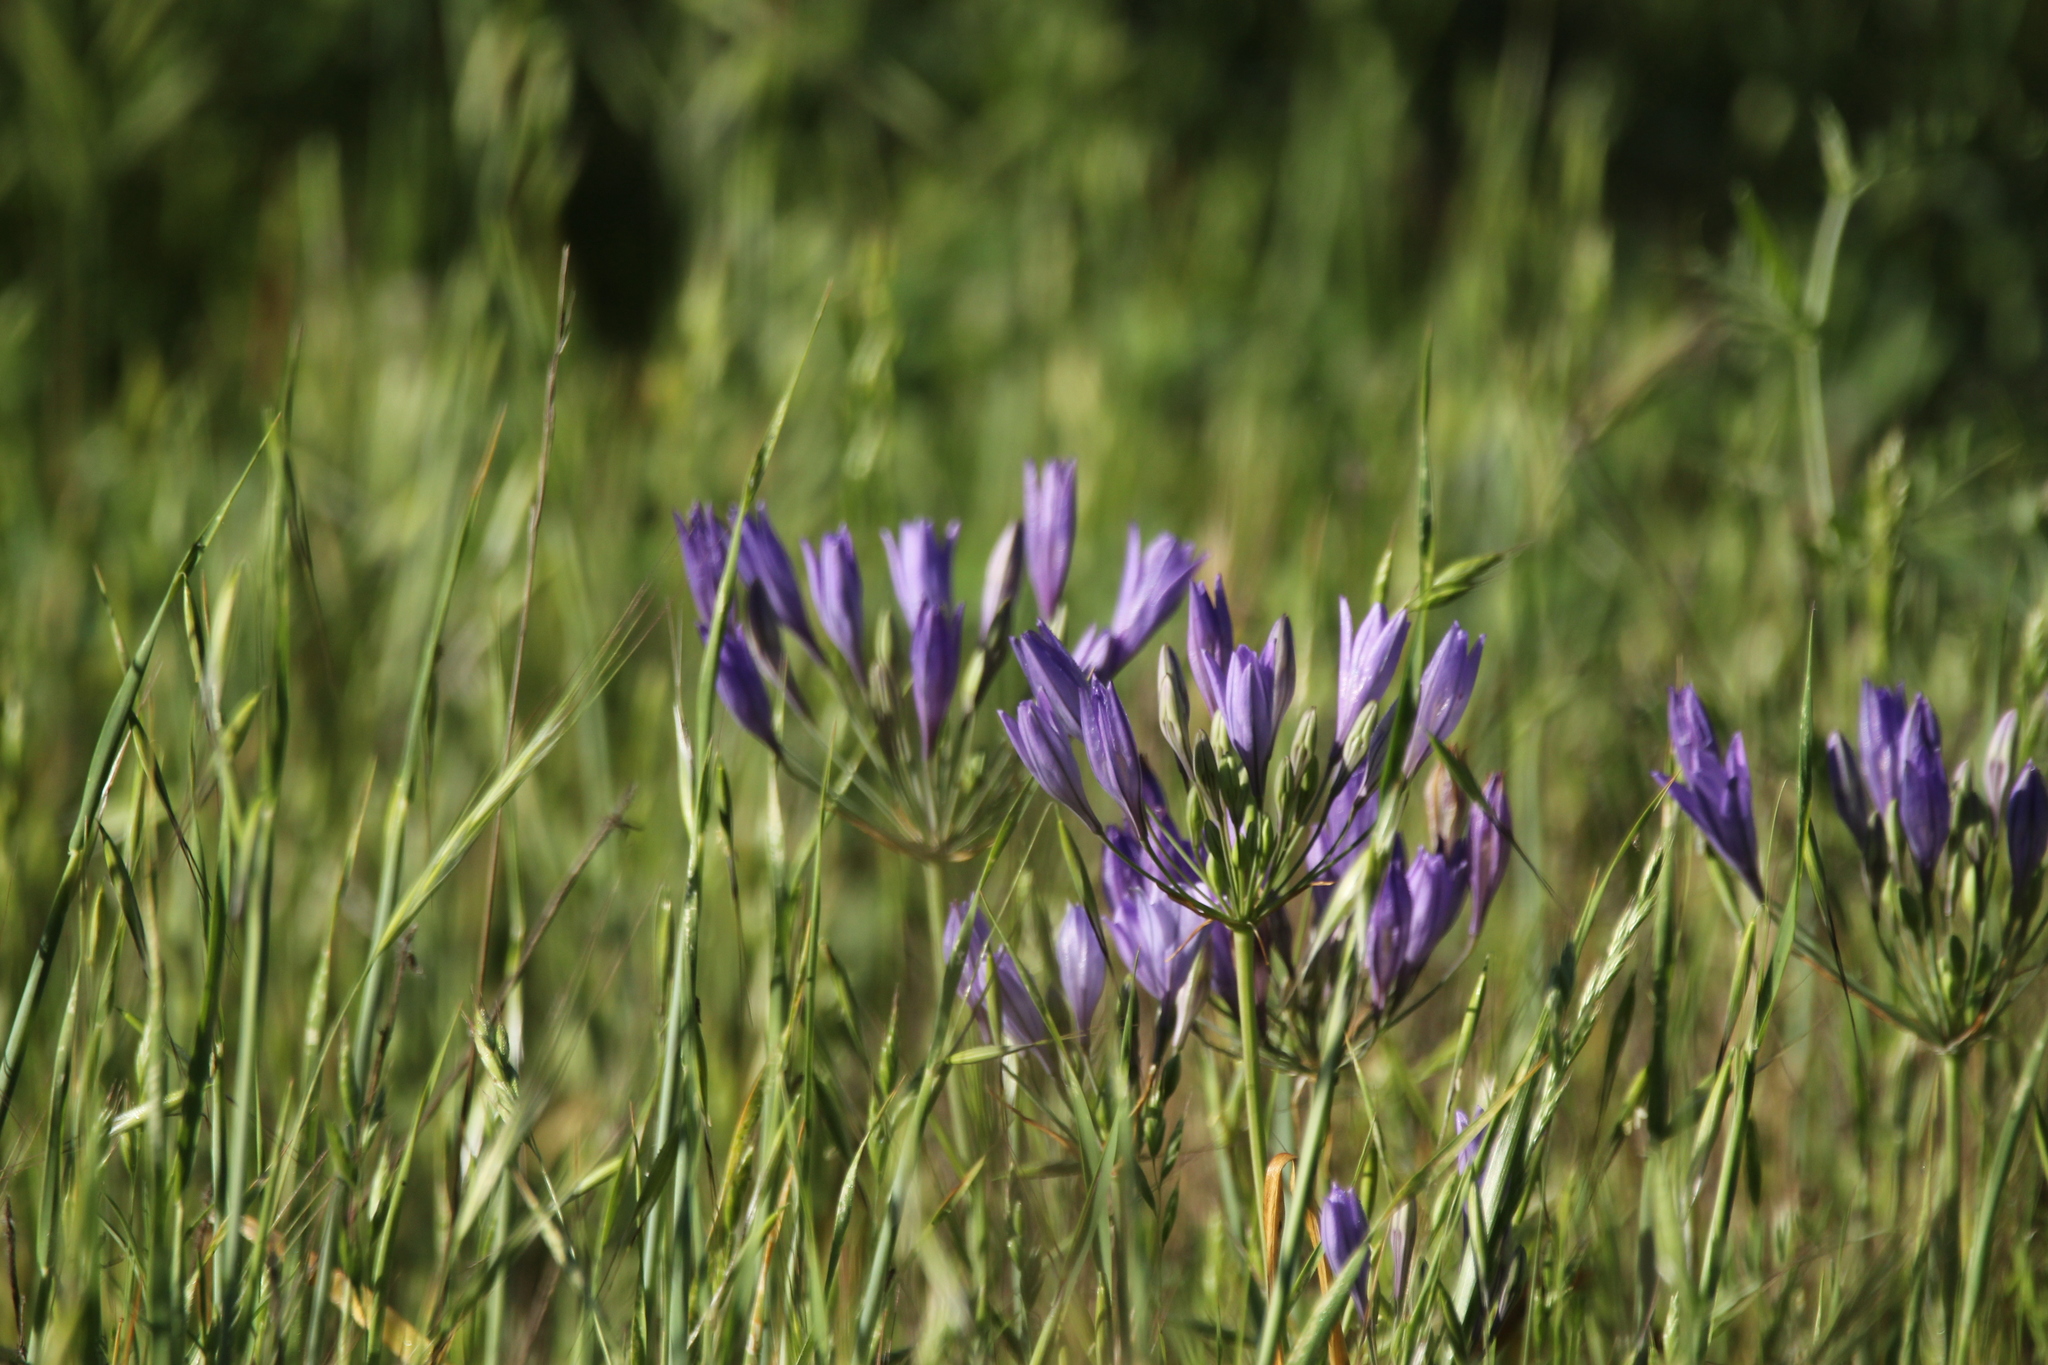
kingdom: Plantae
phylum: Tracheophyta
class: Liliopsida
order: Asparagales
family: Asparagaceae
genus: Triteleia
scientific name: Triteleia laxa
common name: Triplet-lily
